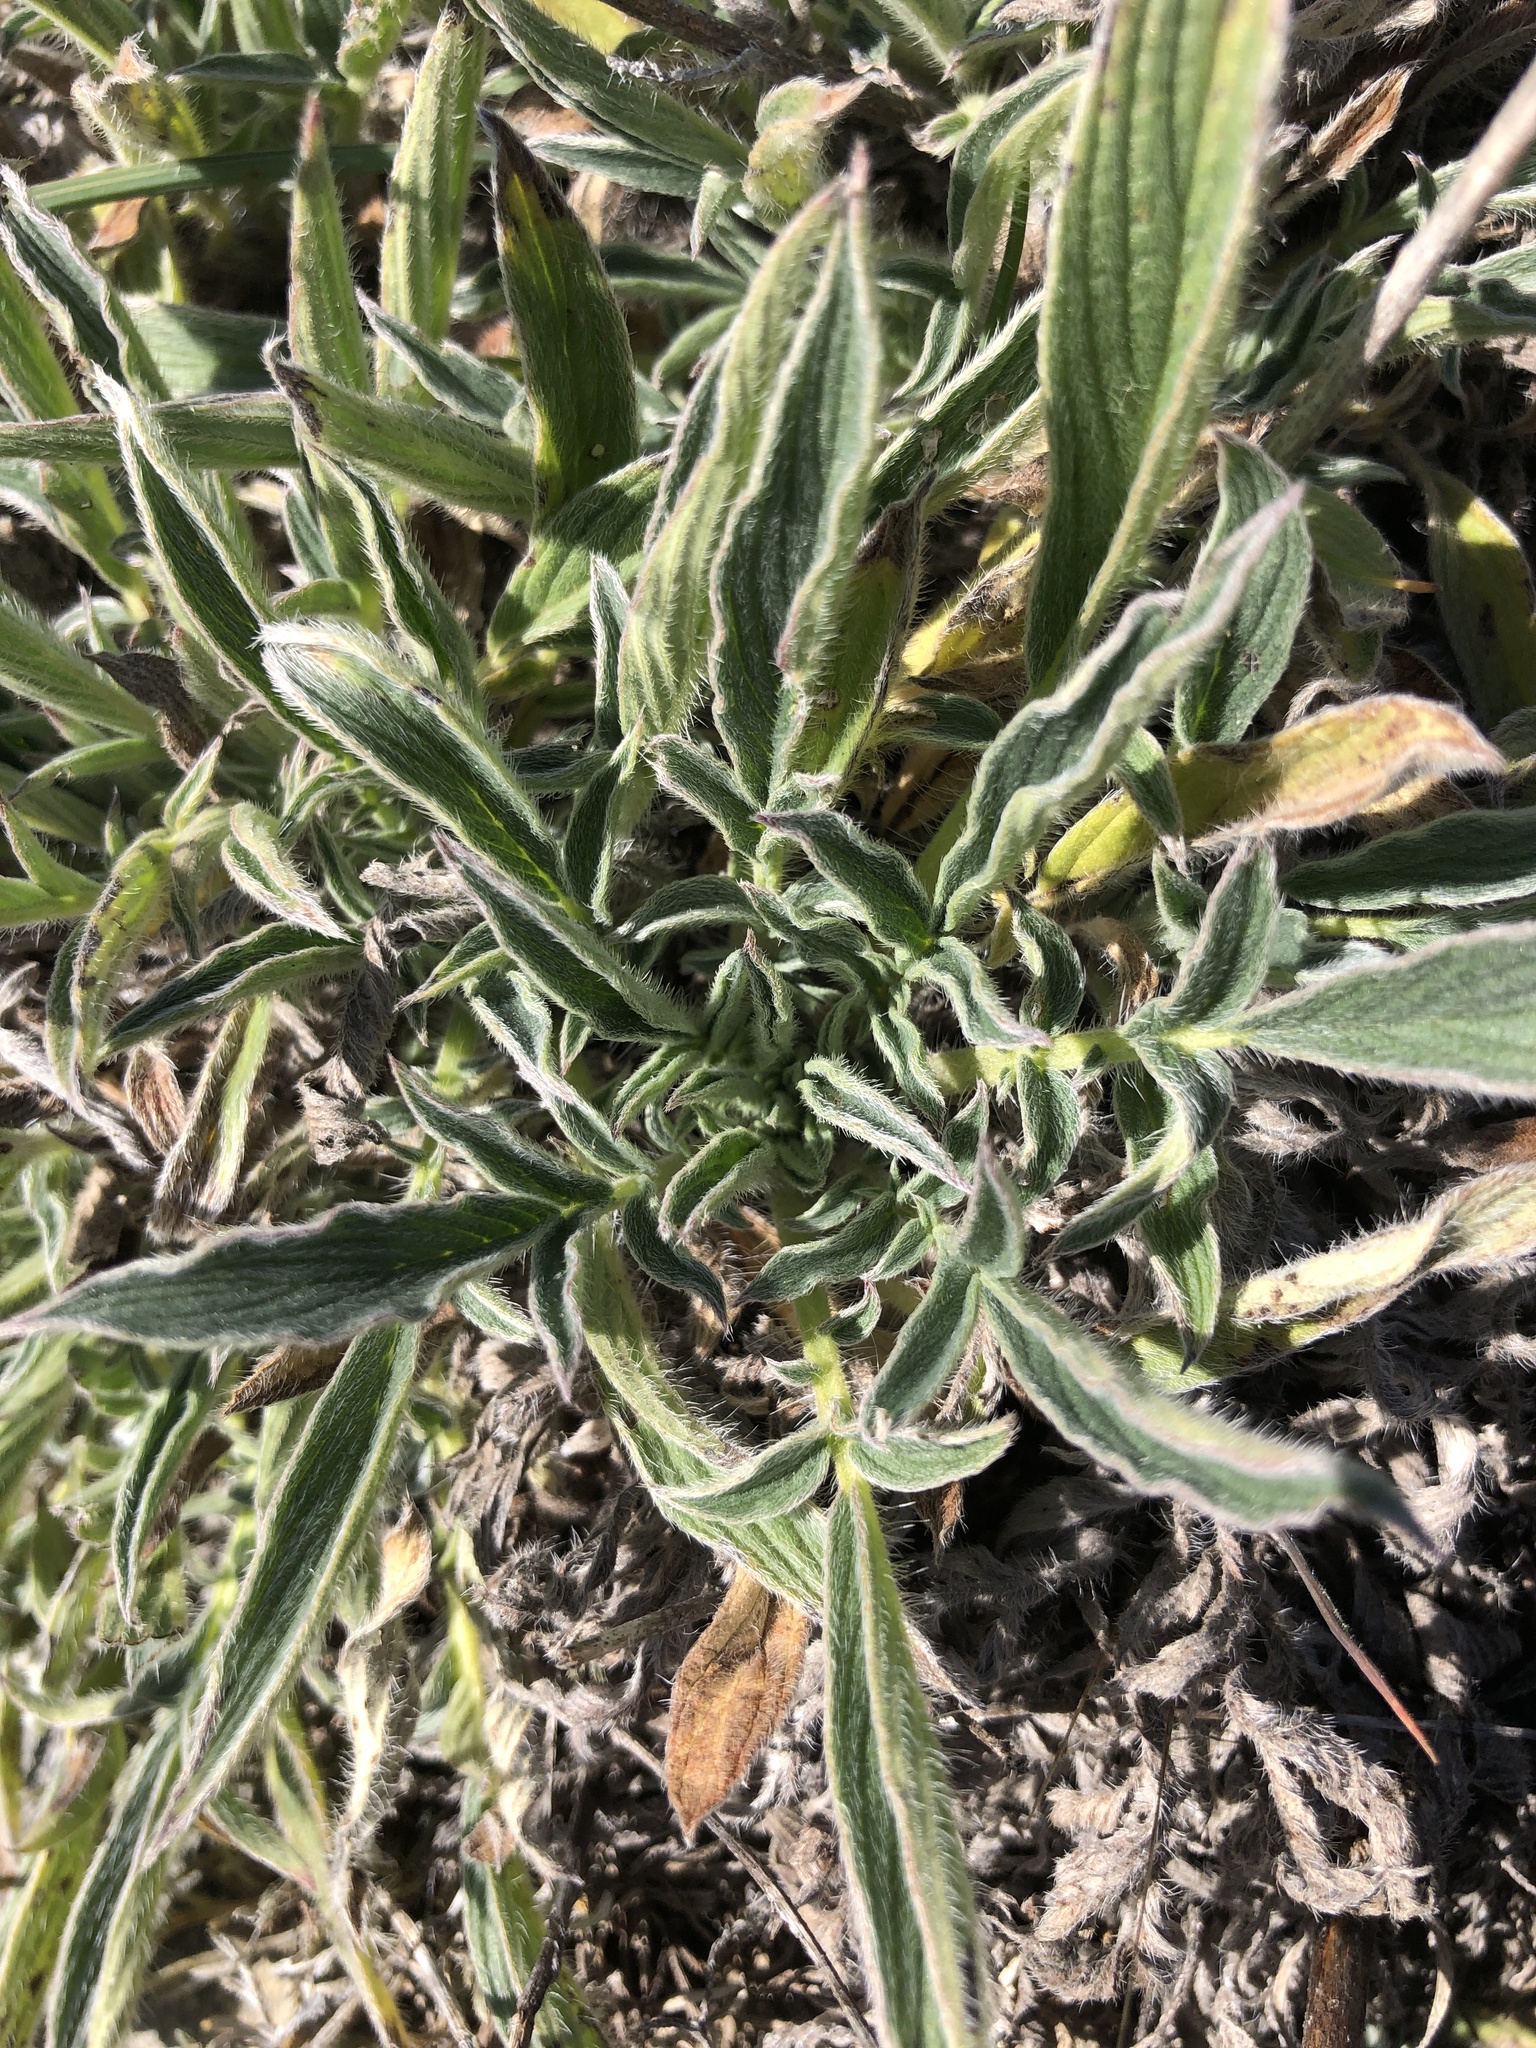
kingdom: Plantae
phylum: Tracheophyta
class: Magnoliopsida
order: Boraginales
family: Hydrophyllaceae
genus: Phacelia
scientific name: Phacelia imbricata
